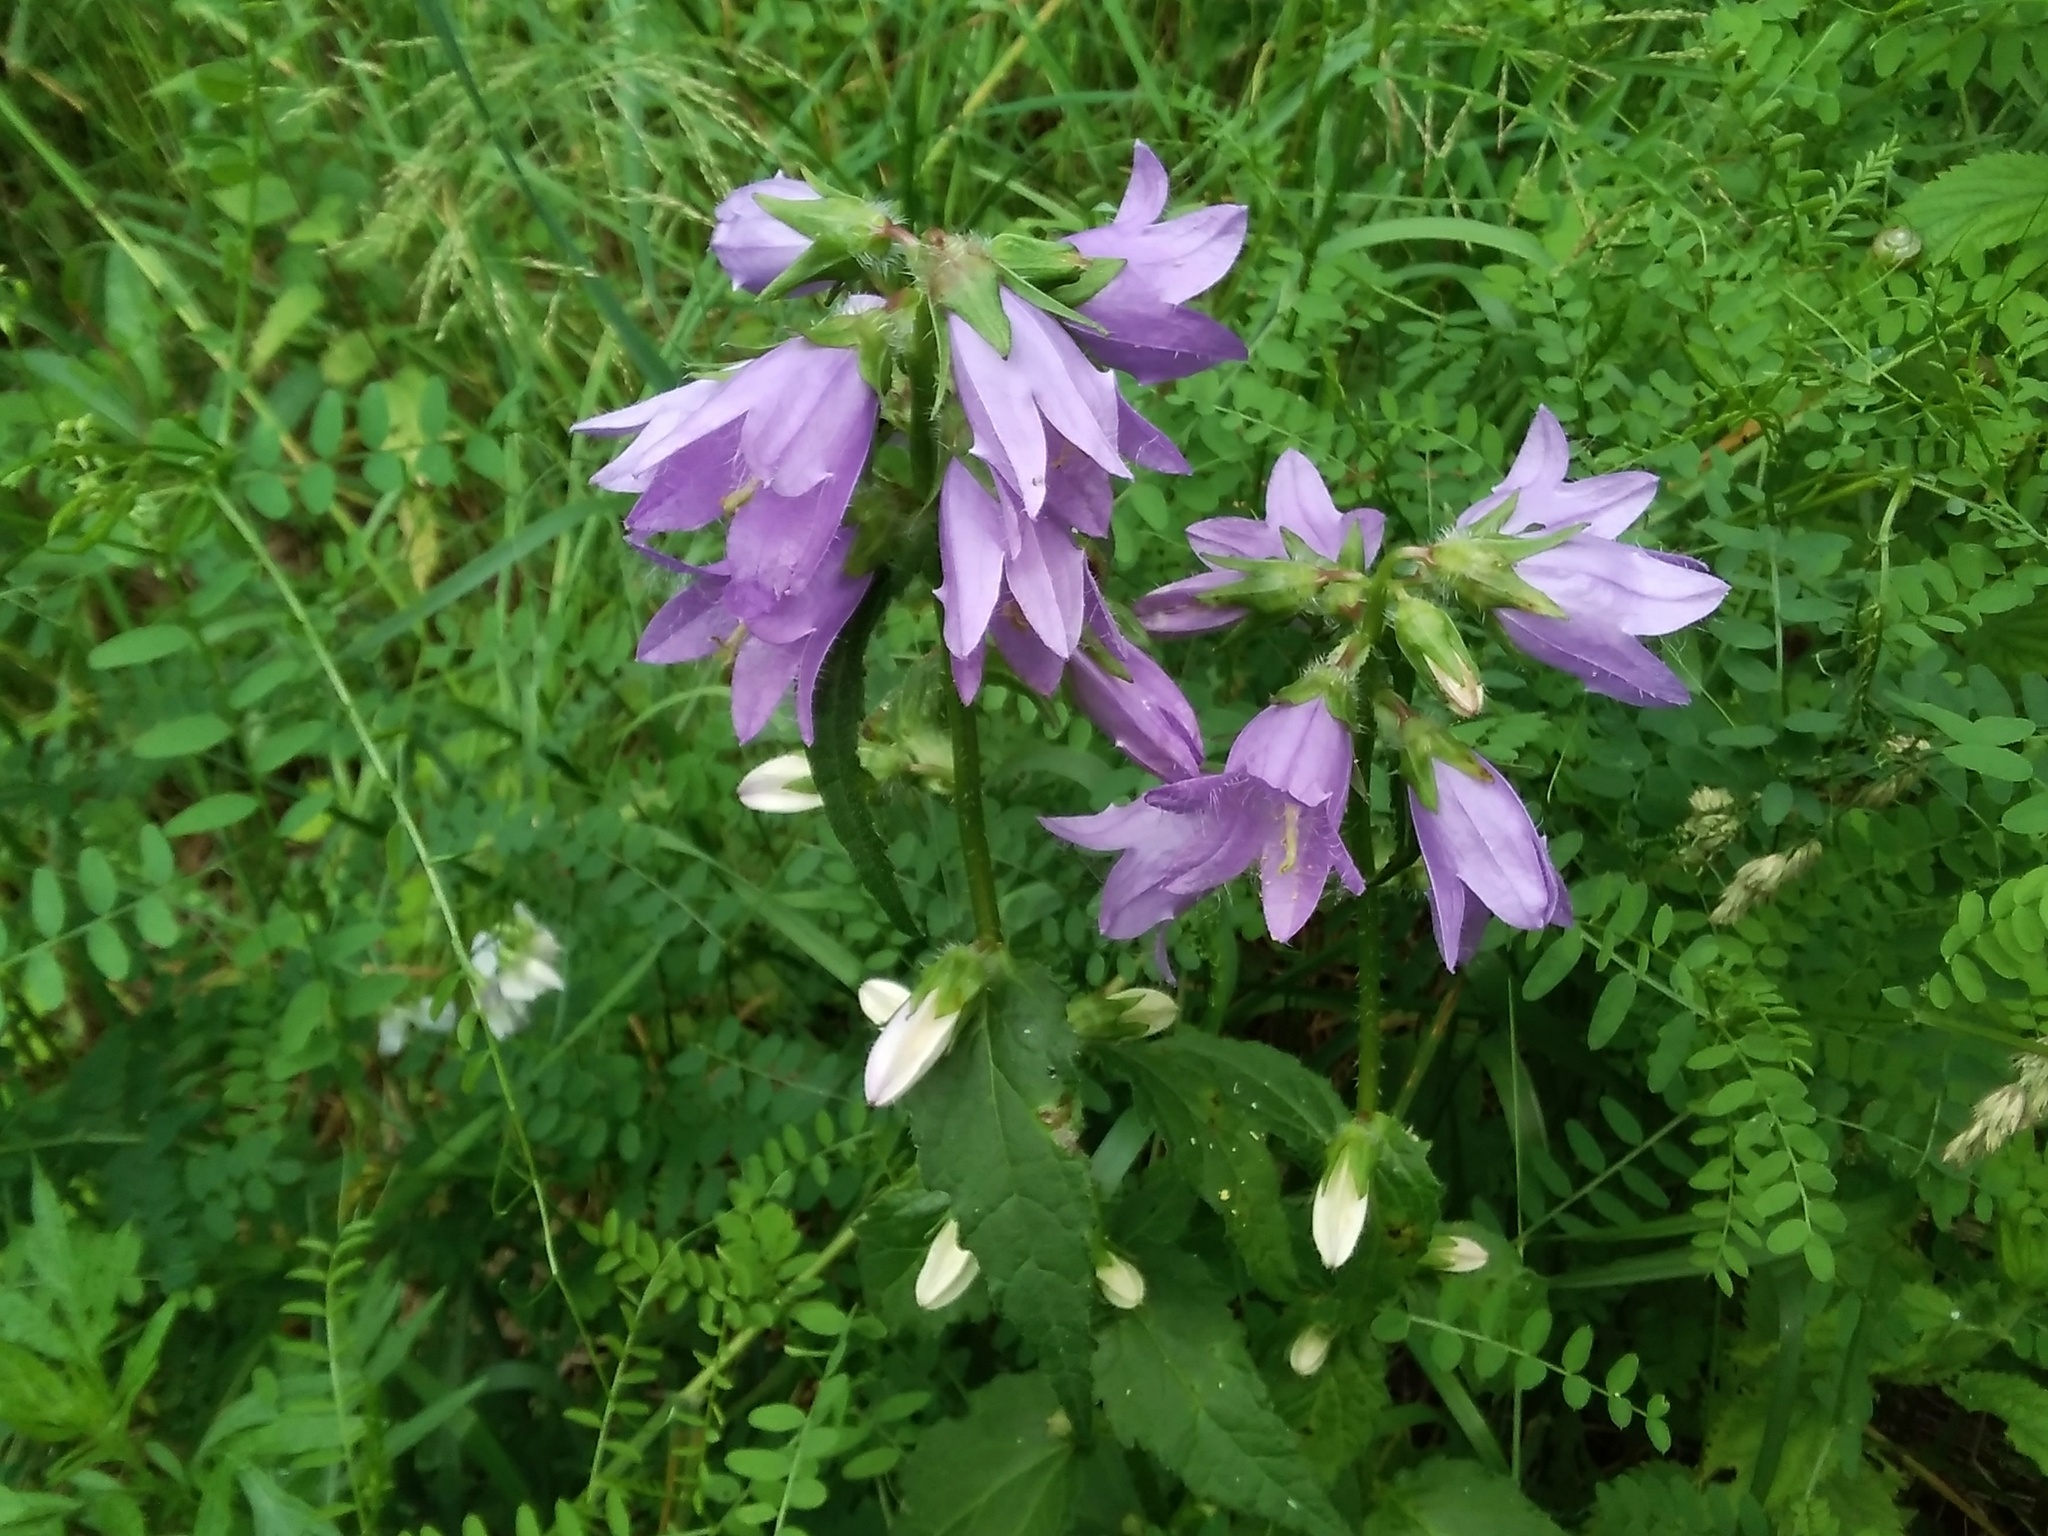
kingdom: Plantae
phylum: Tracheophyta
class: Magnoliopsida
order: Asterales
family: Campanulaceae
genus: Campanula
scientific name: Campanula trachelium
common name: Nettle-leaved bellflower
